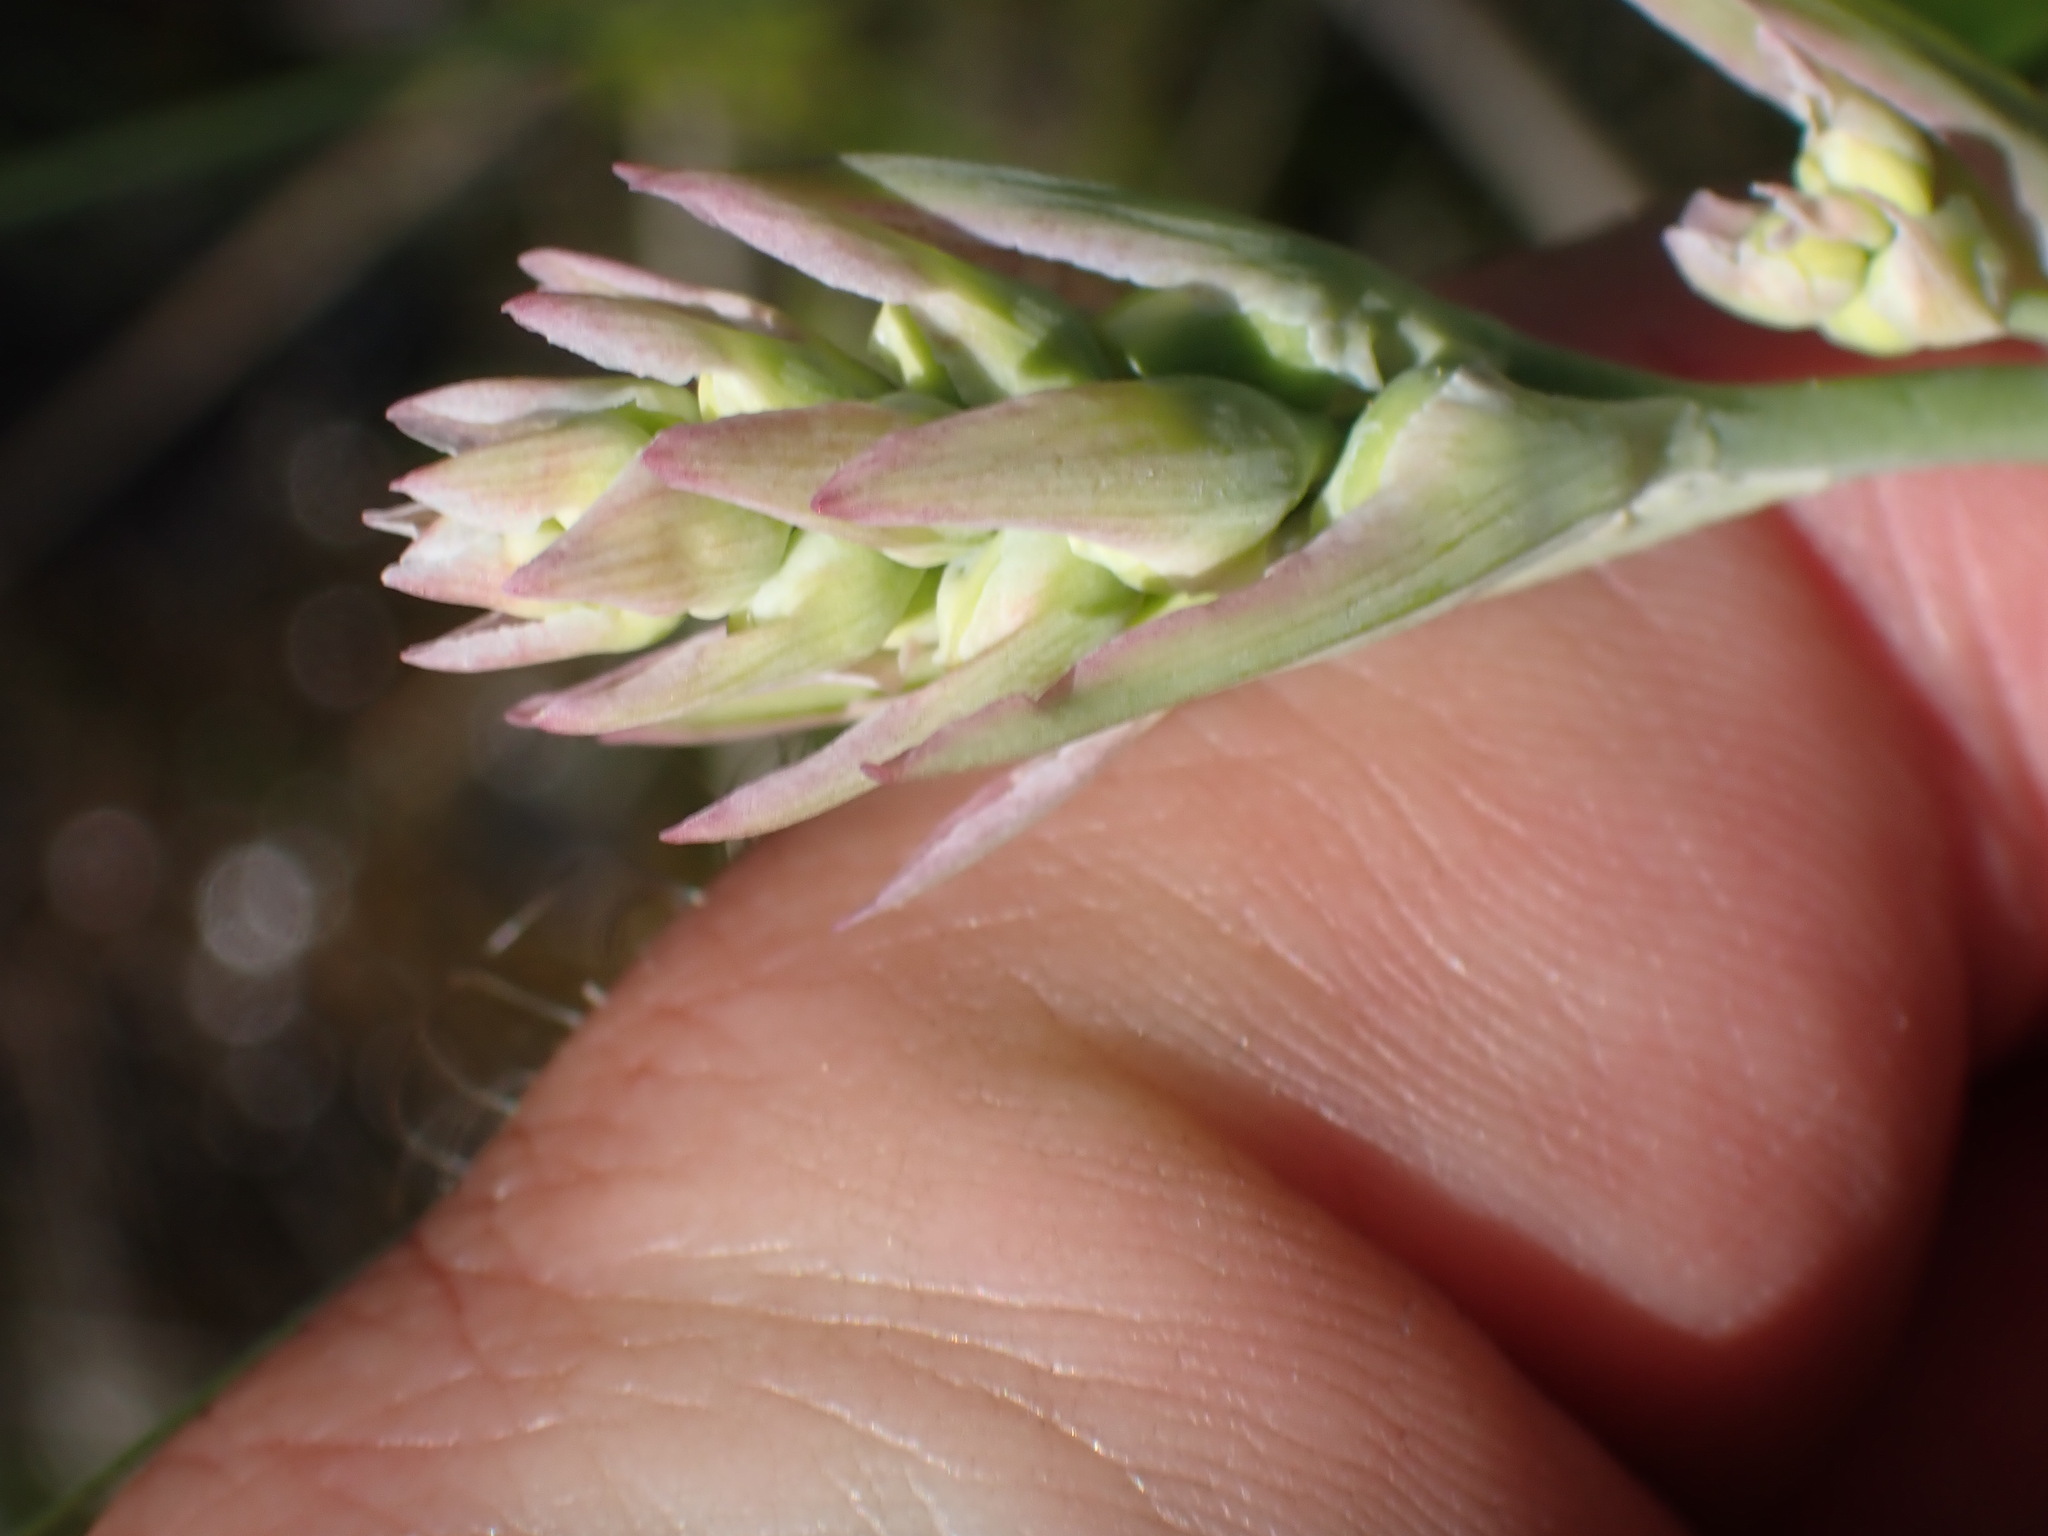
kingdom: Plantae
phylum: Tracheophyta
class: Liliopsida
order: Liliales
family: Melanthiaceae
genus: Anticlea
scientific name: Anticlea elegans
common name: Mountain death camas
